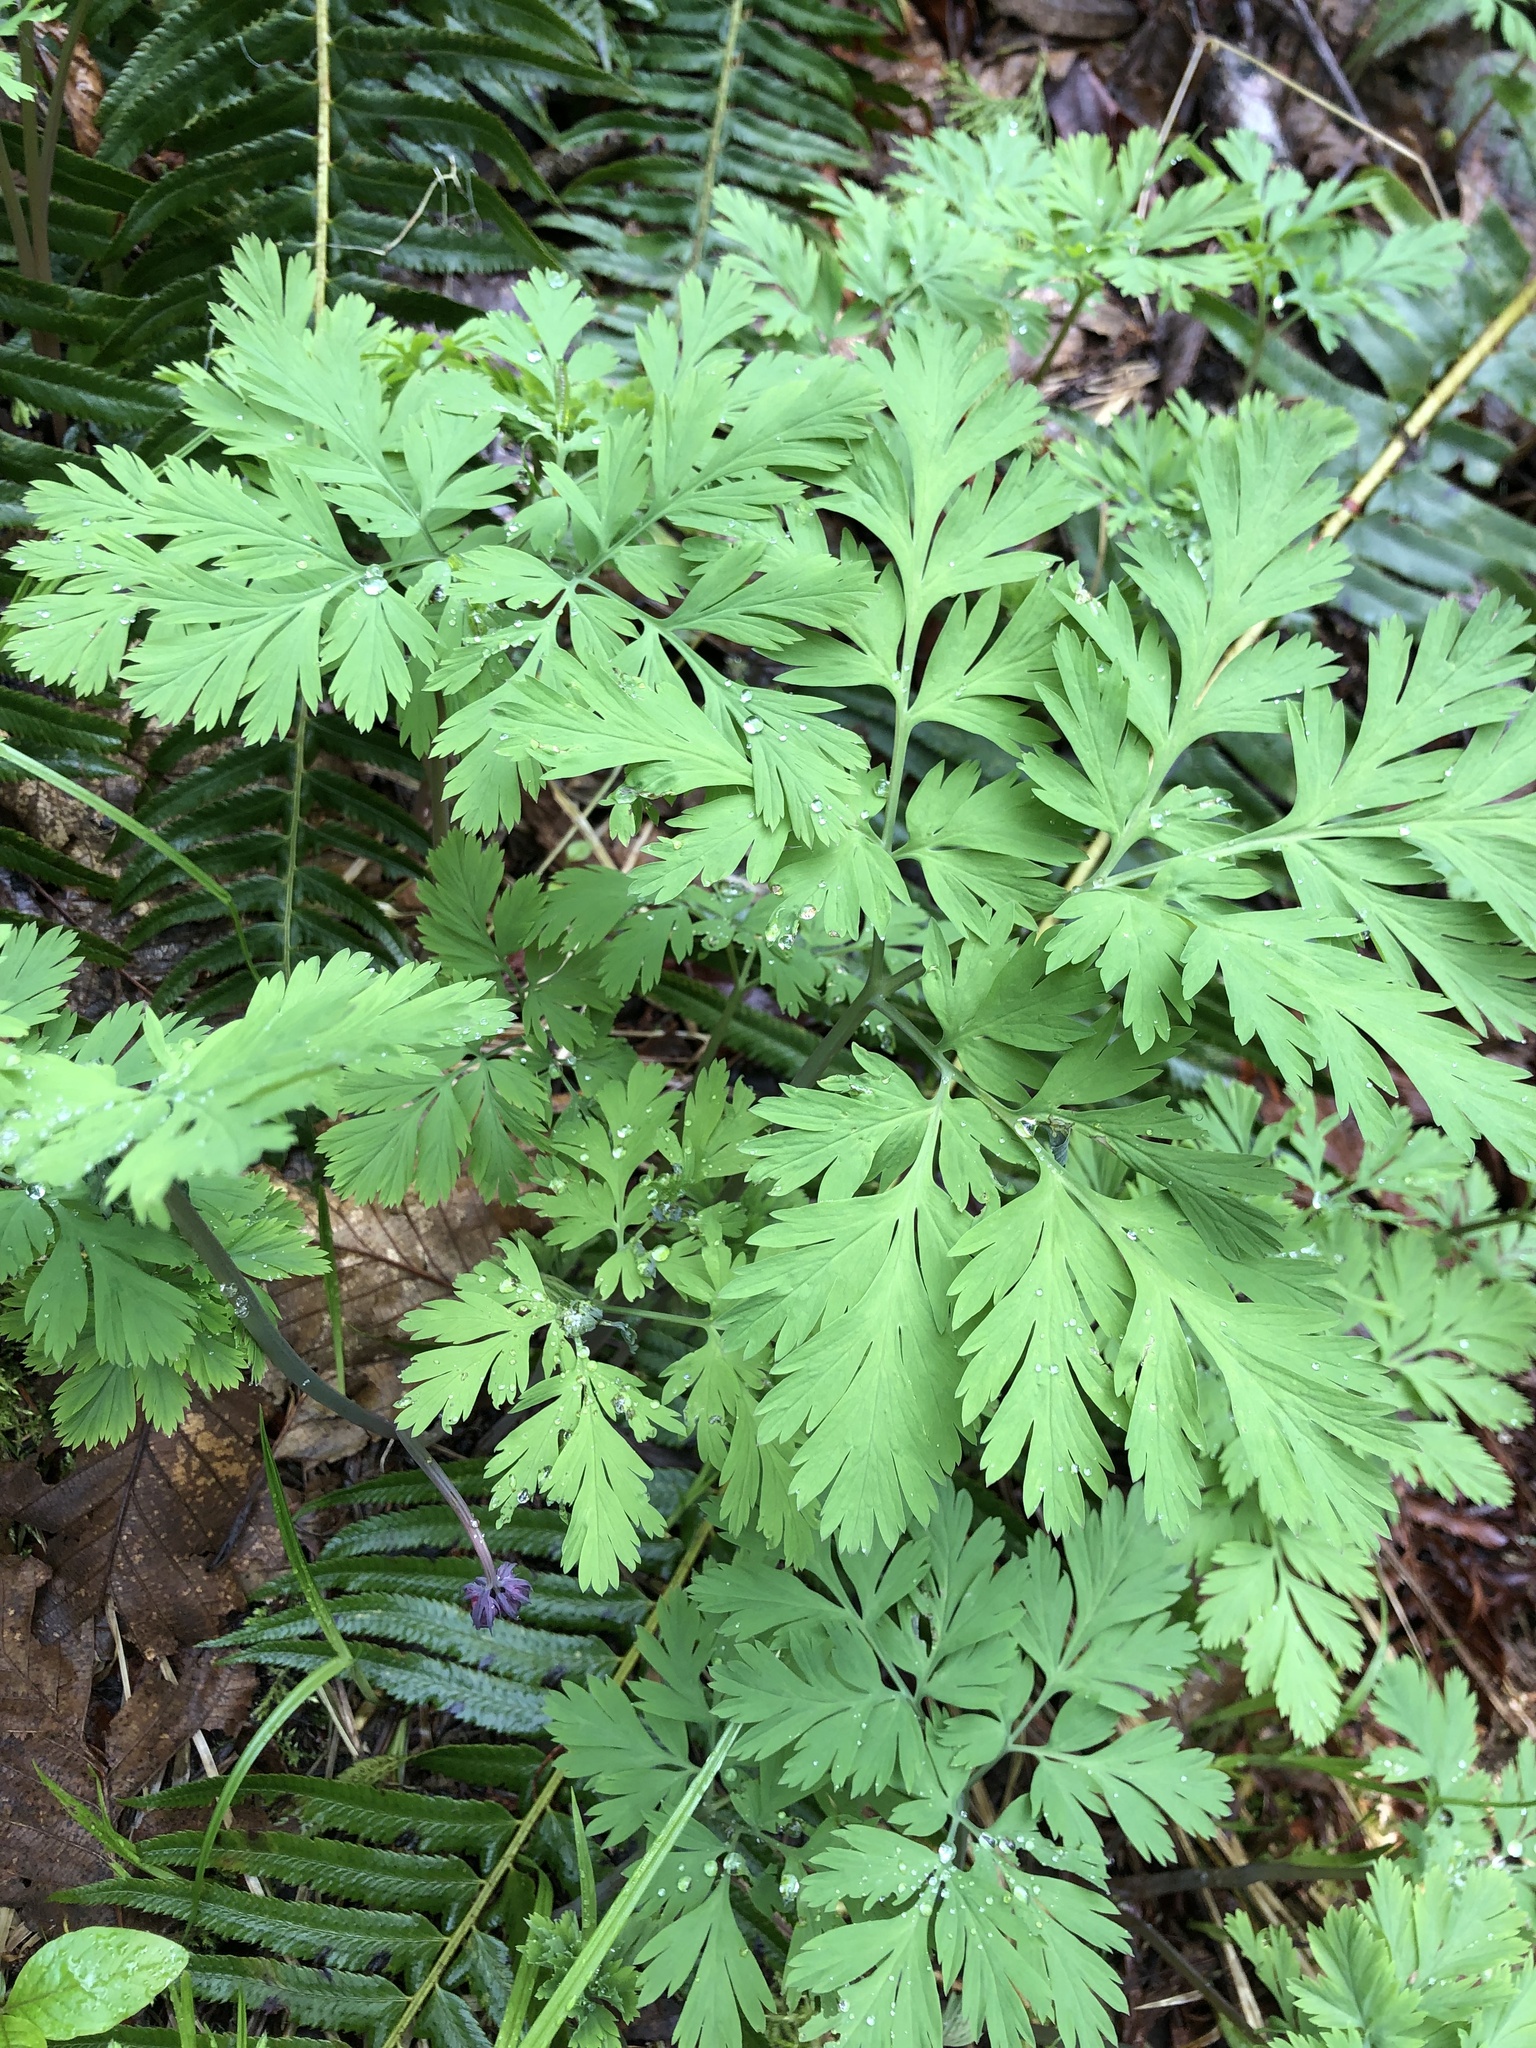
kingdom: Plantae
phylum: Tracheophyta
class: Magnoliopsida
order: Ranunculales
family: Papaveraceae
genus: Dicentra
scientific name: Dicentra formosa
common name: Bleeding-heart
